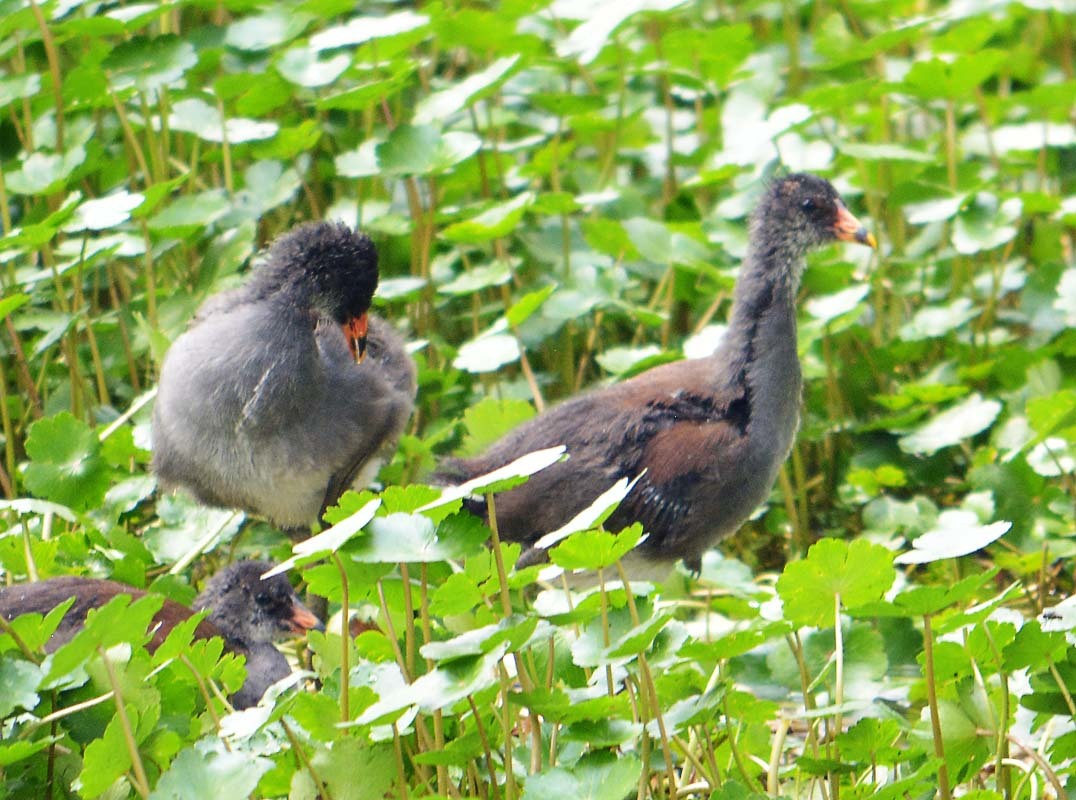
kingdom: Animalia
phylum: Chordata
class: Aves
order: Gruiformes
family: Rallidae
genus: Gallinula
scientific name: Gallinula chloropus
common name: Common moorhen
